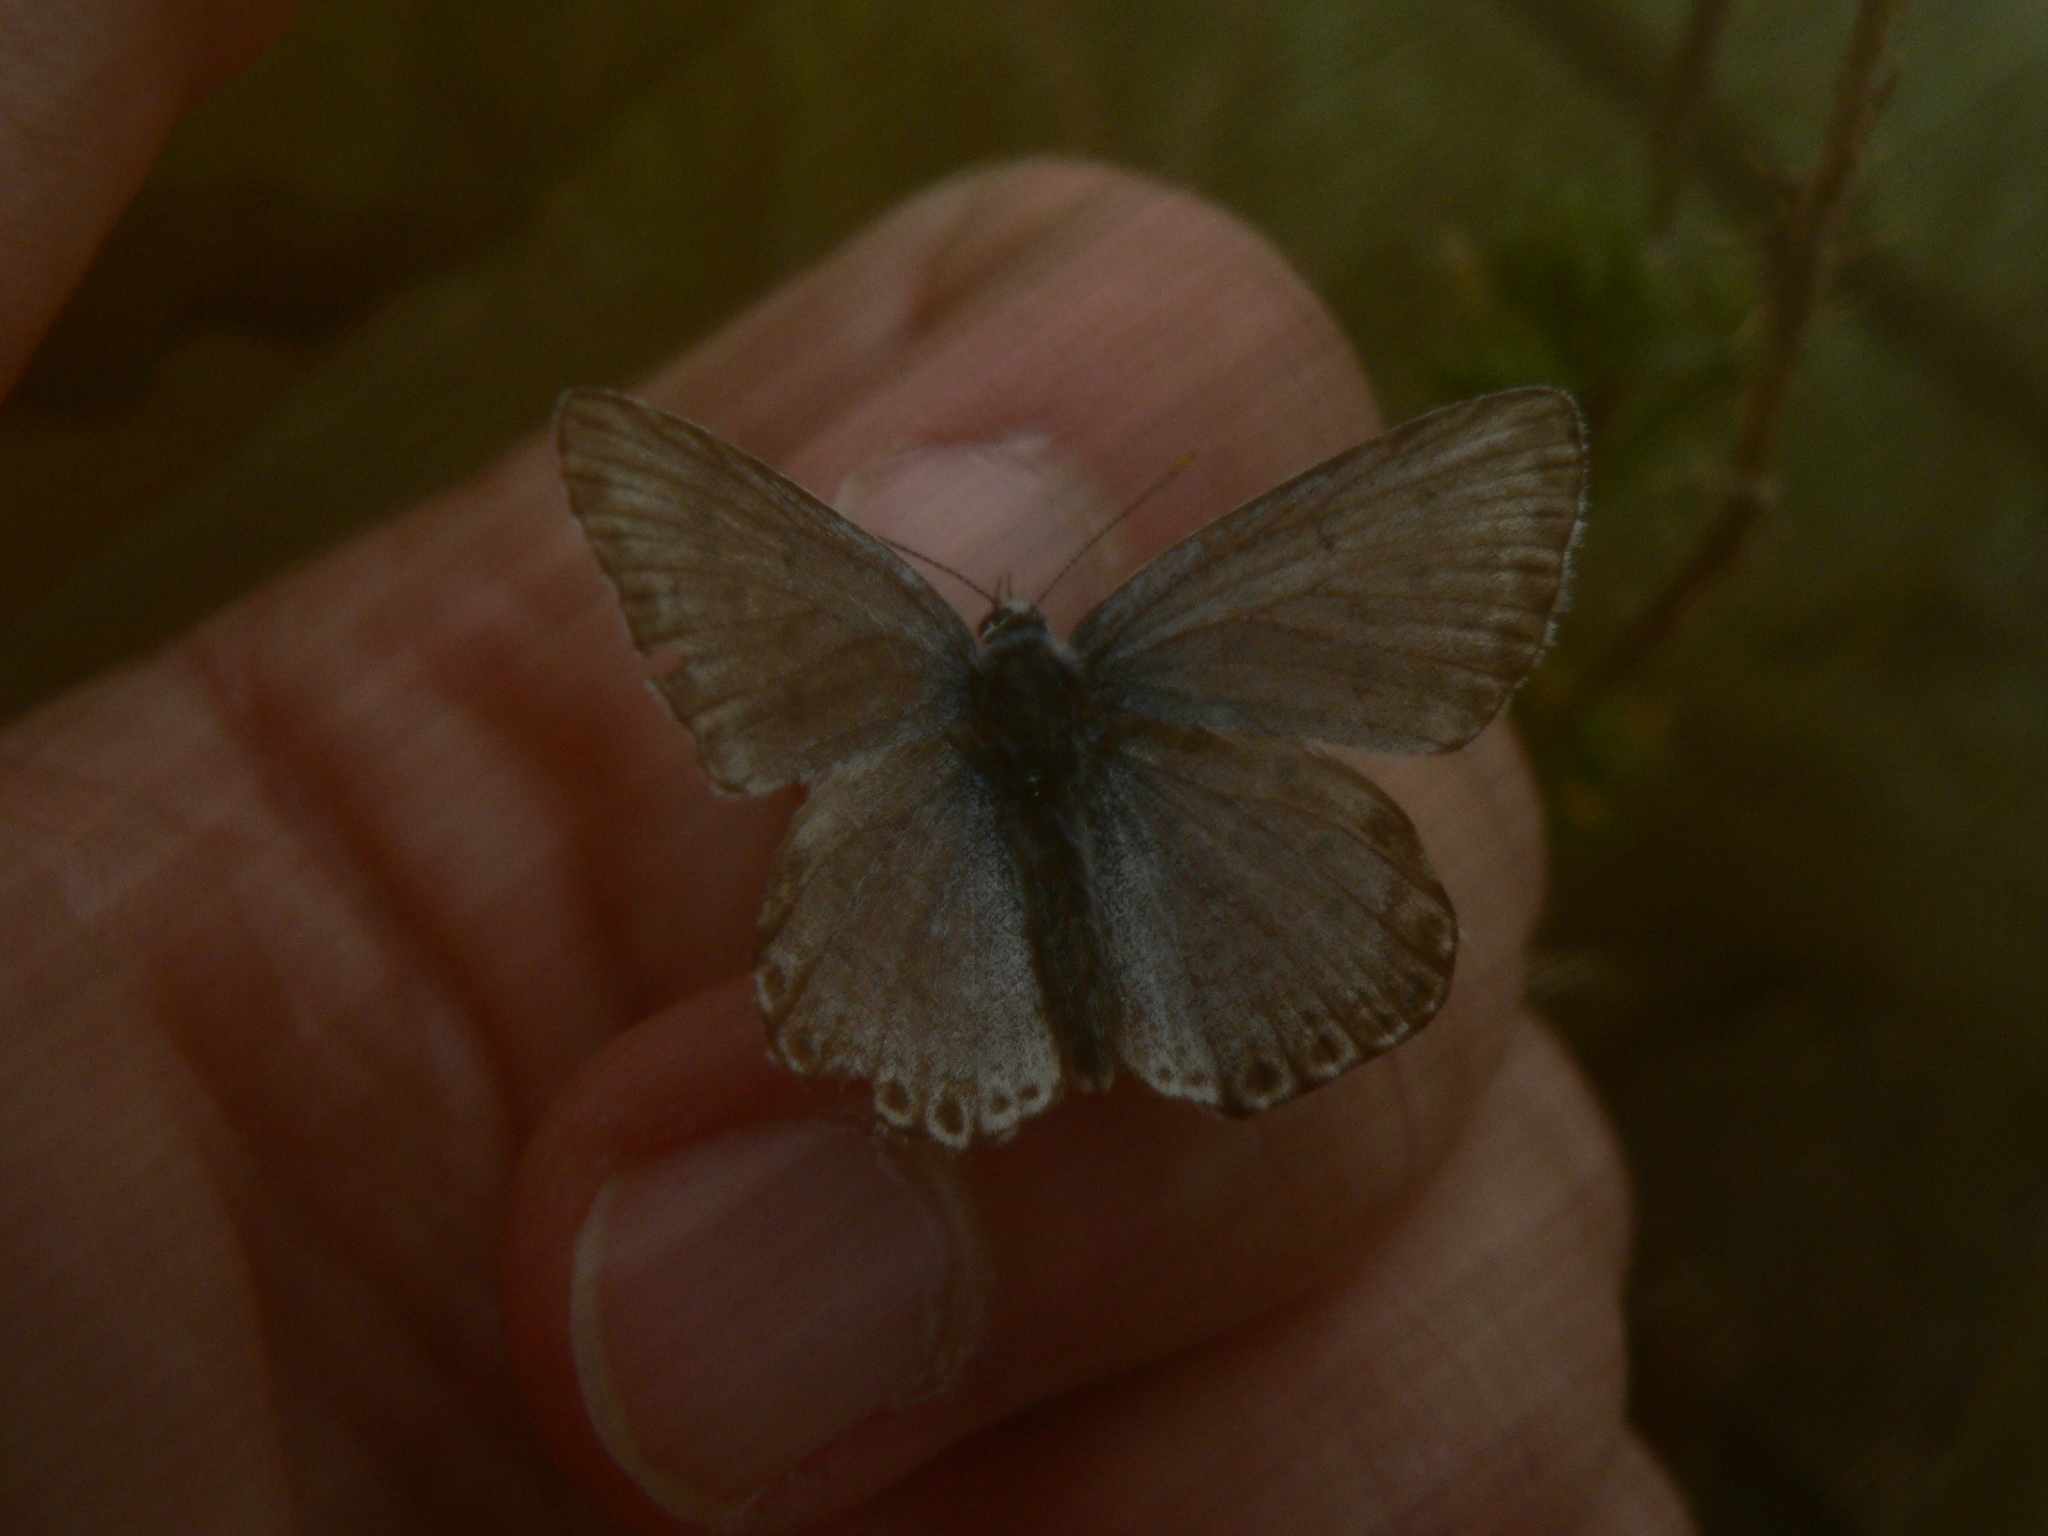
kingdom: Animalia
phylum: Arthropoda
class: Insecta
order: Lepidoptera
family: Lycaenidae
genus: Lysandra
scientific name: Lysandra hispana
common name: Provence chalkhill blue
